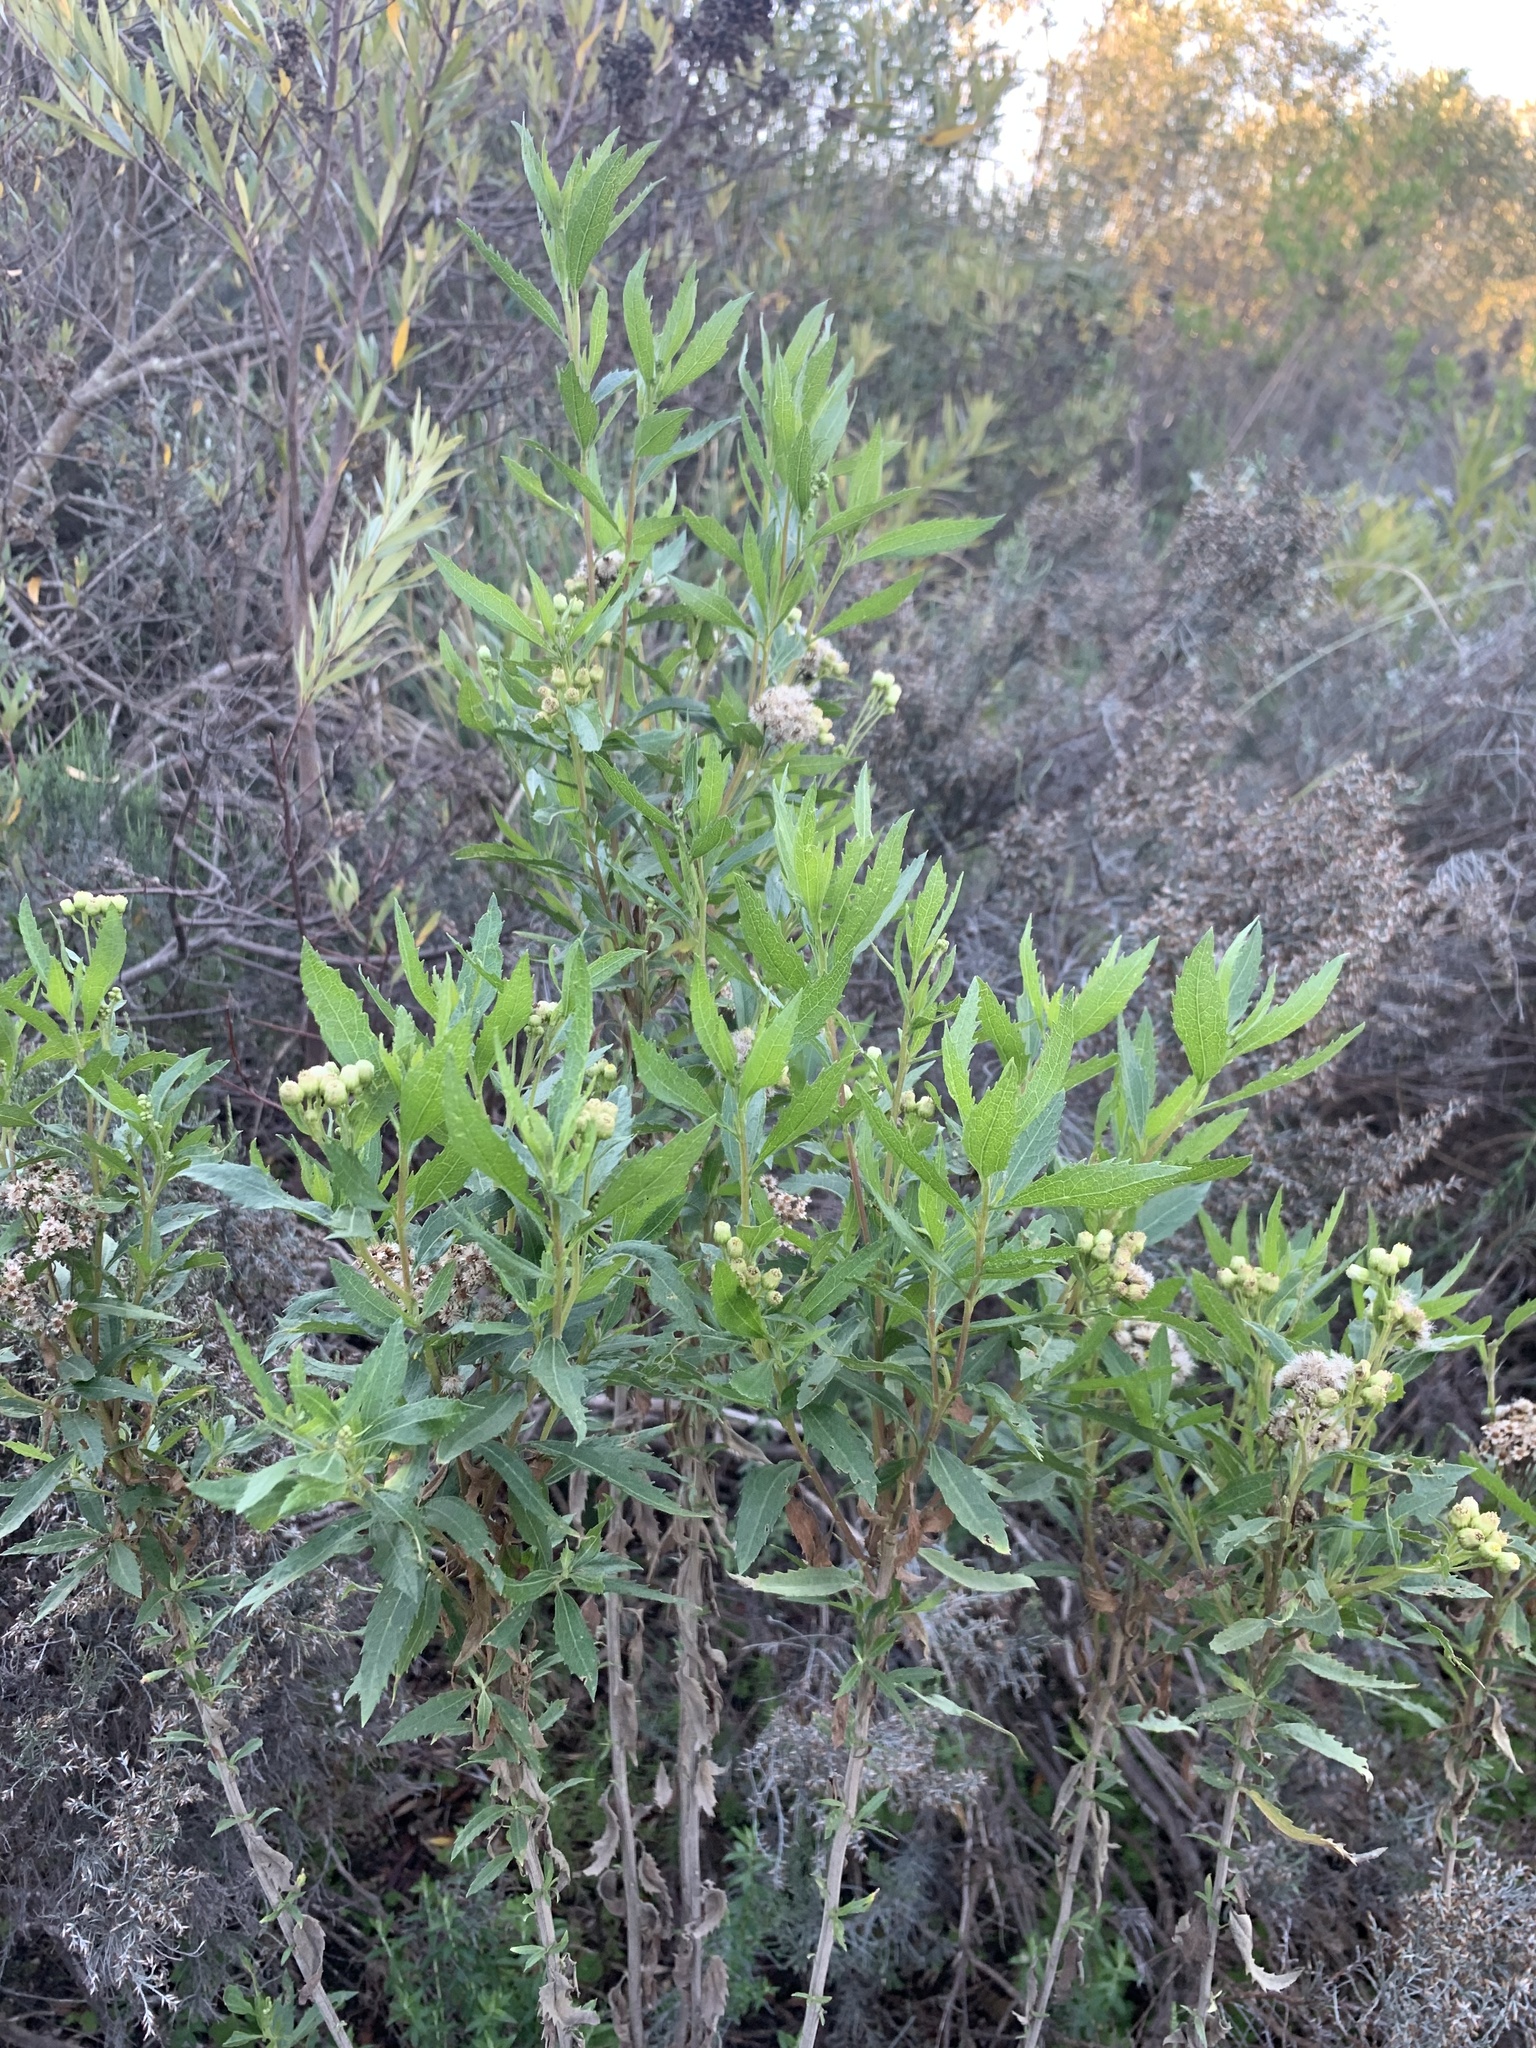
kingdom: Plantae
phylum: Tracheophyta
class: Magnoliopsida
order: Asterales
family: Asteraceae
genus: Nidorella
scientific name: Nidorella ivifolia
